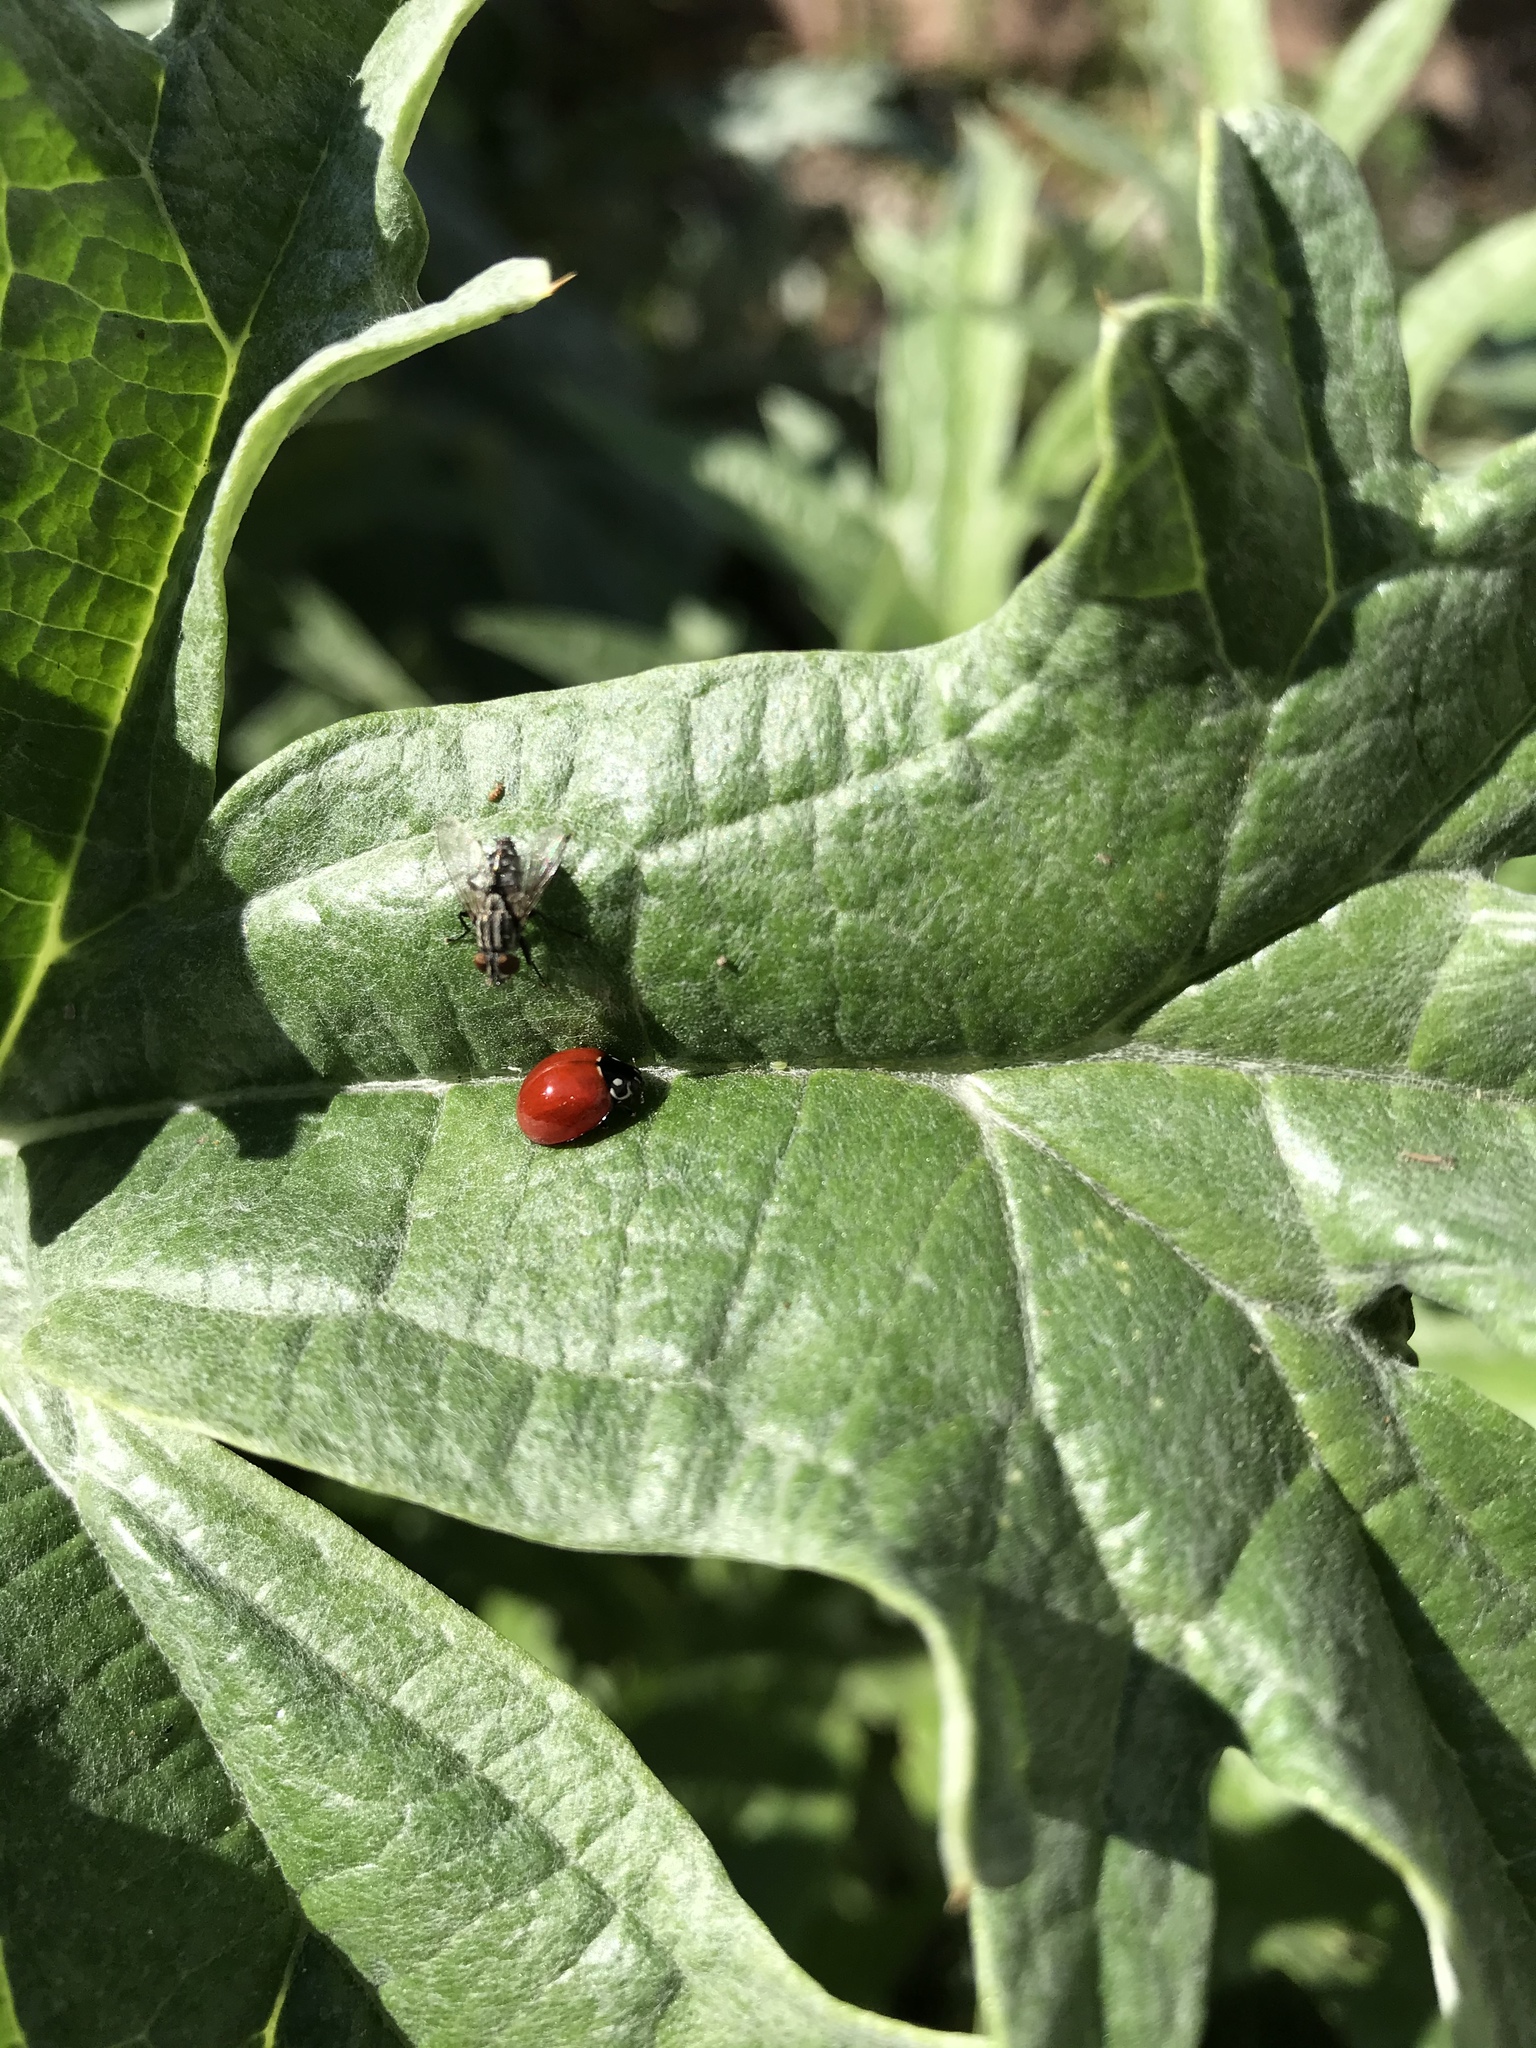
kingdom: Animalia
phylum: Arthropoda
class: Insecta
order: Coleoptera
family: Coccinellidae
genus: Cycloneda
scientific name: Cycloneda sanguinea
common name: Ladybird beetle
